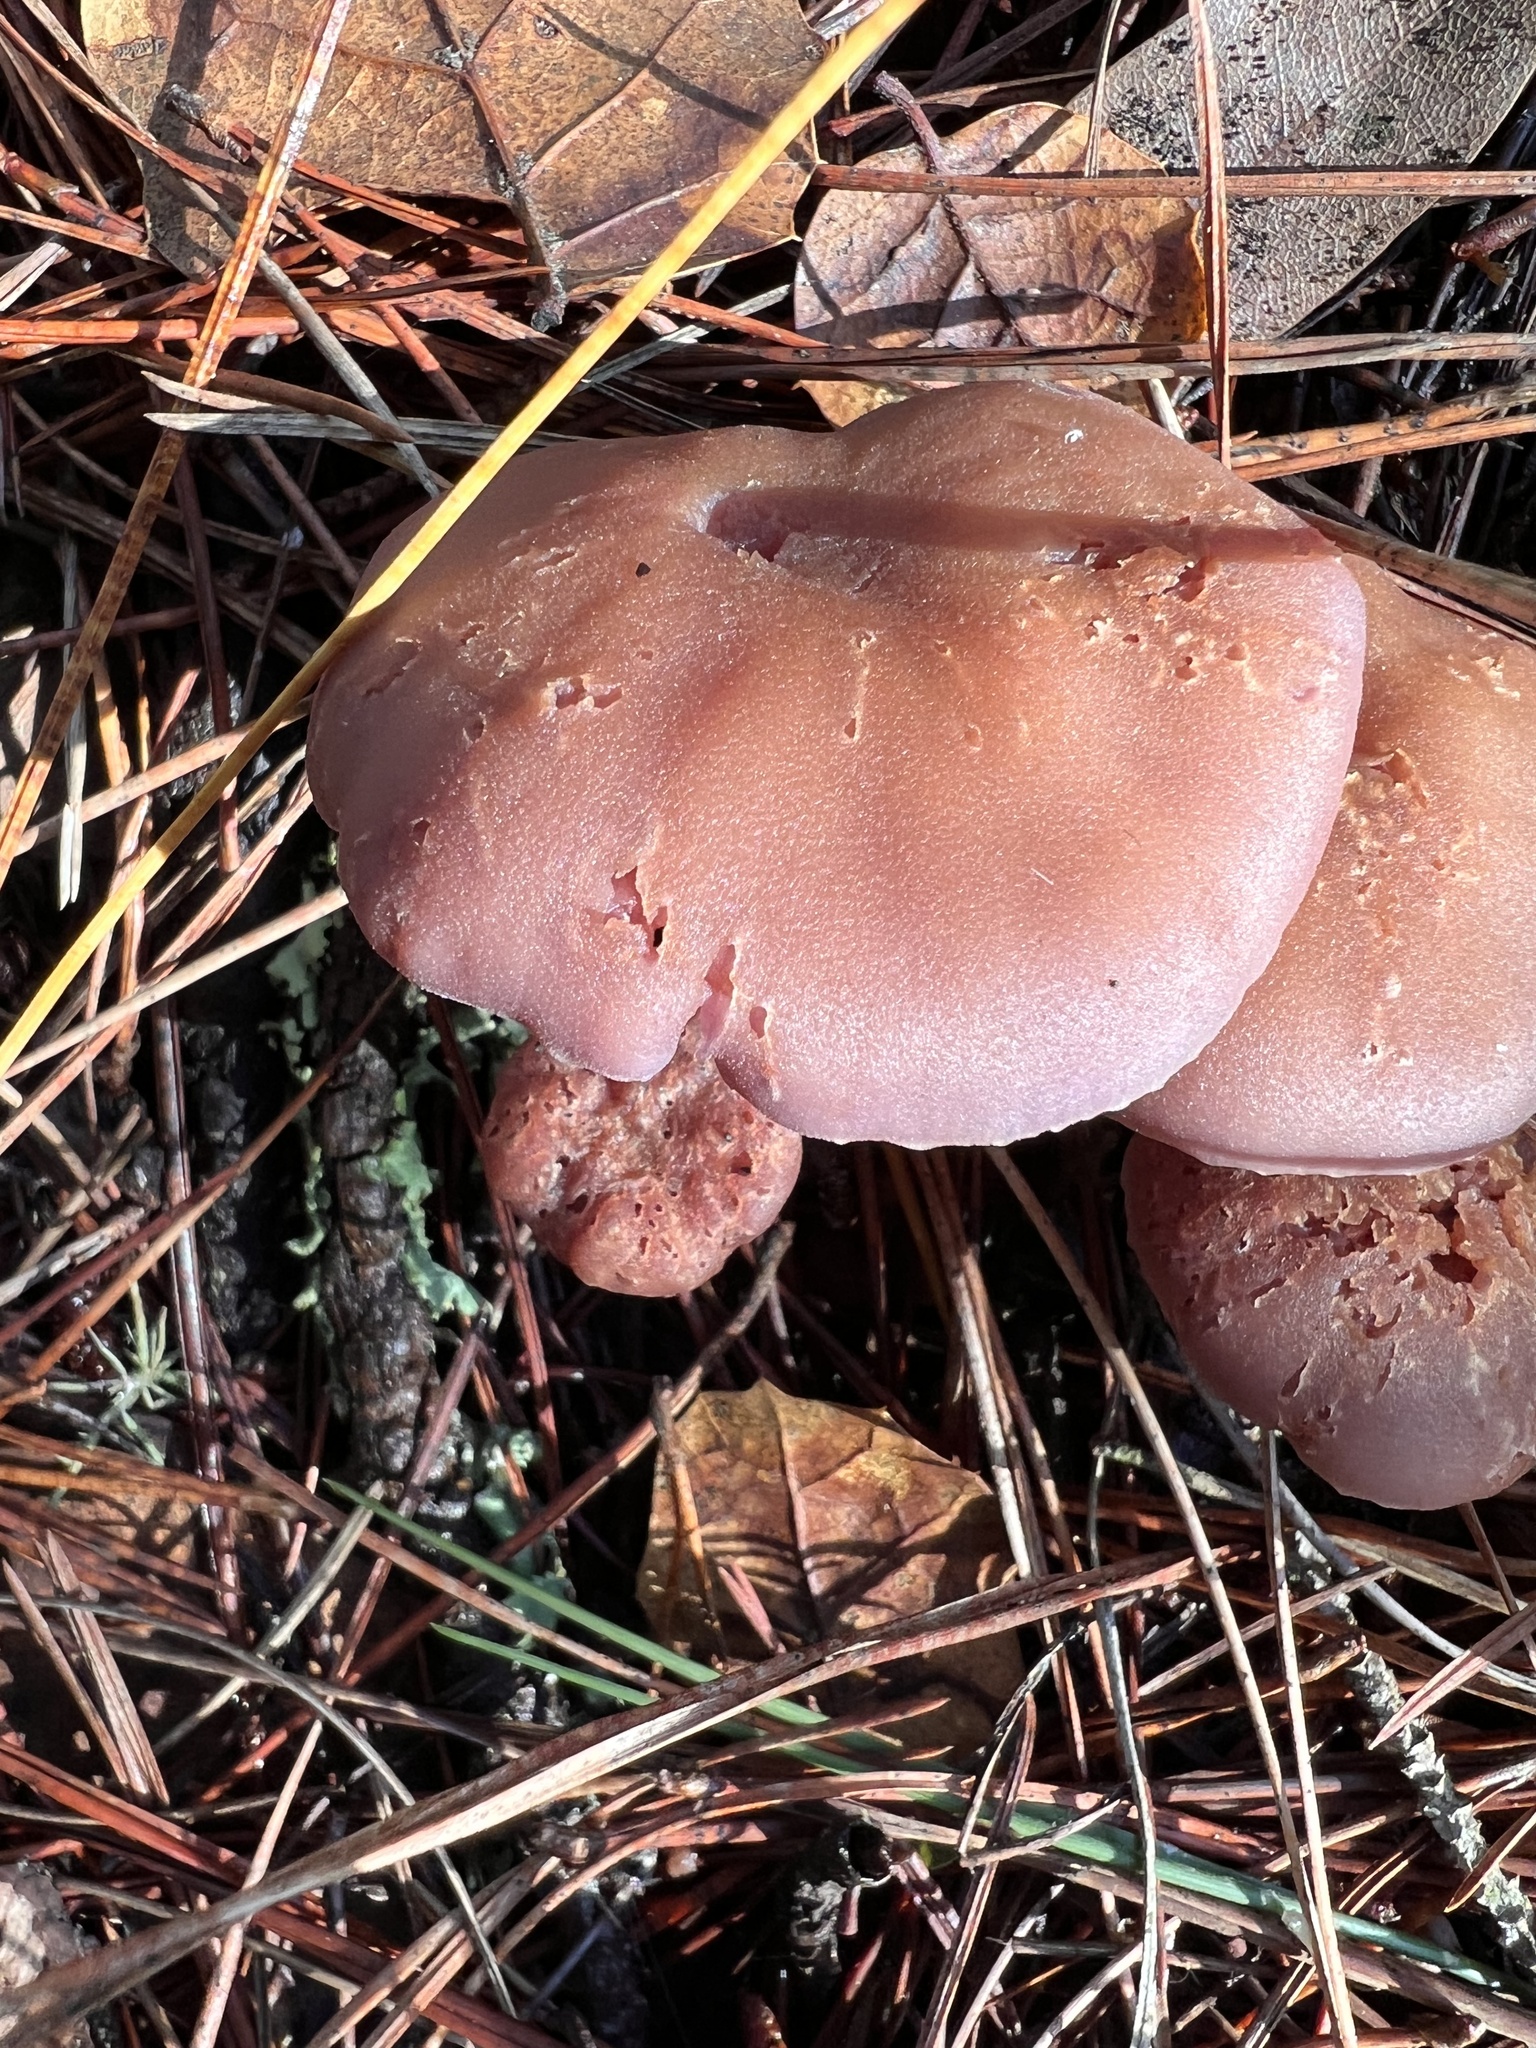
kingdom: Fungi
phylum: Basidiomycota
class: Agaricomycetes
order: Agaricales
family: Hydnangiaceae
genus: Laccaria
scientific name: Laccaria amethysteo-occidentalis
